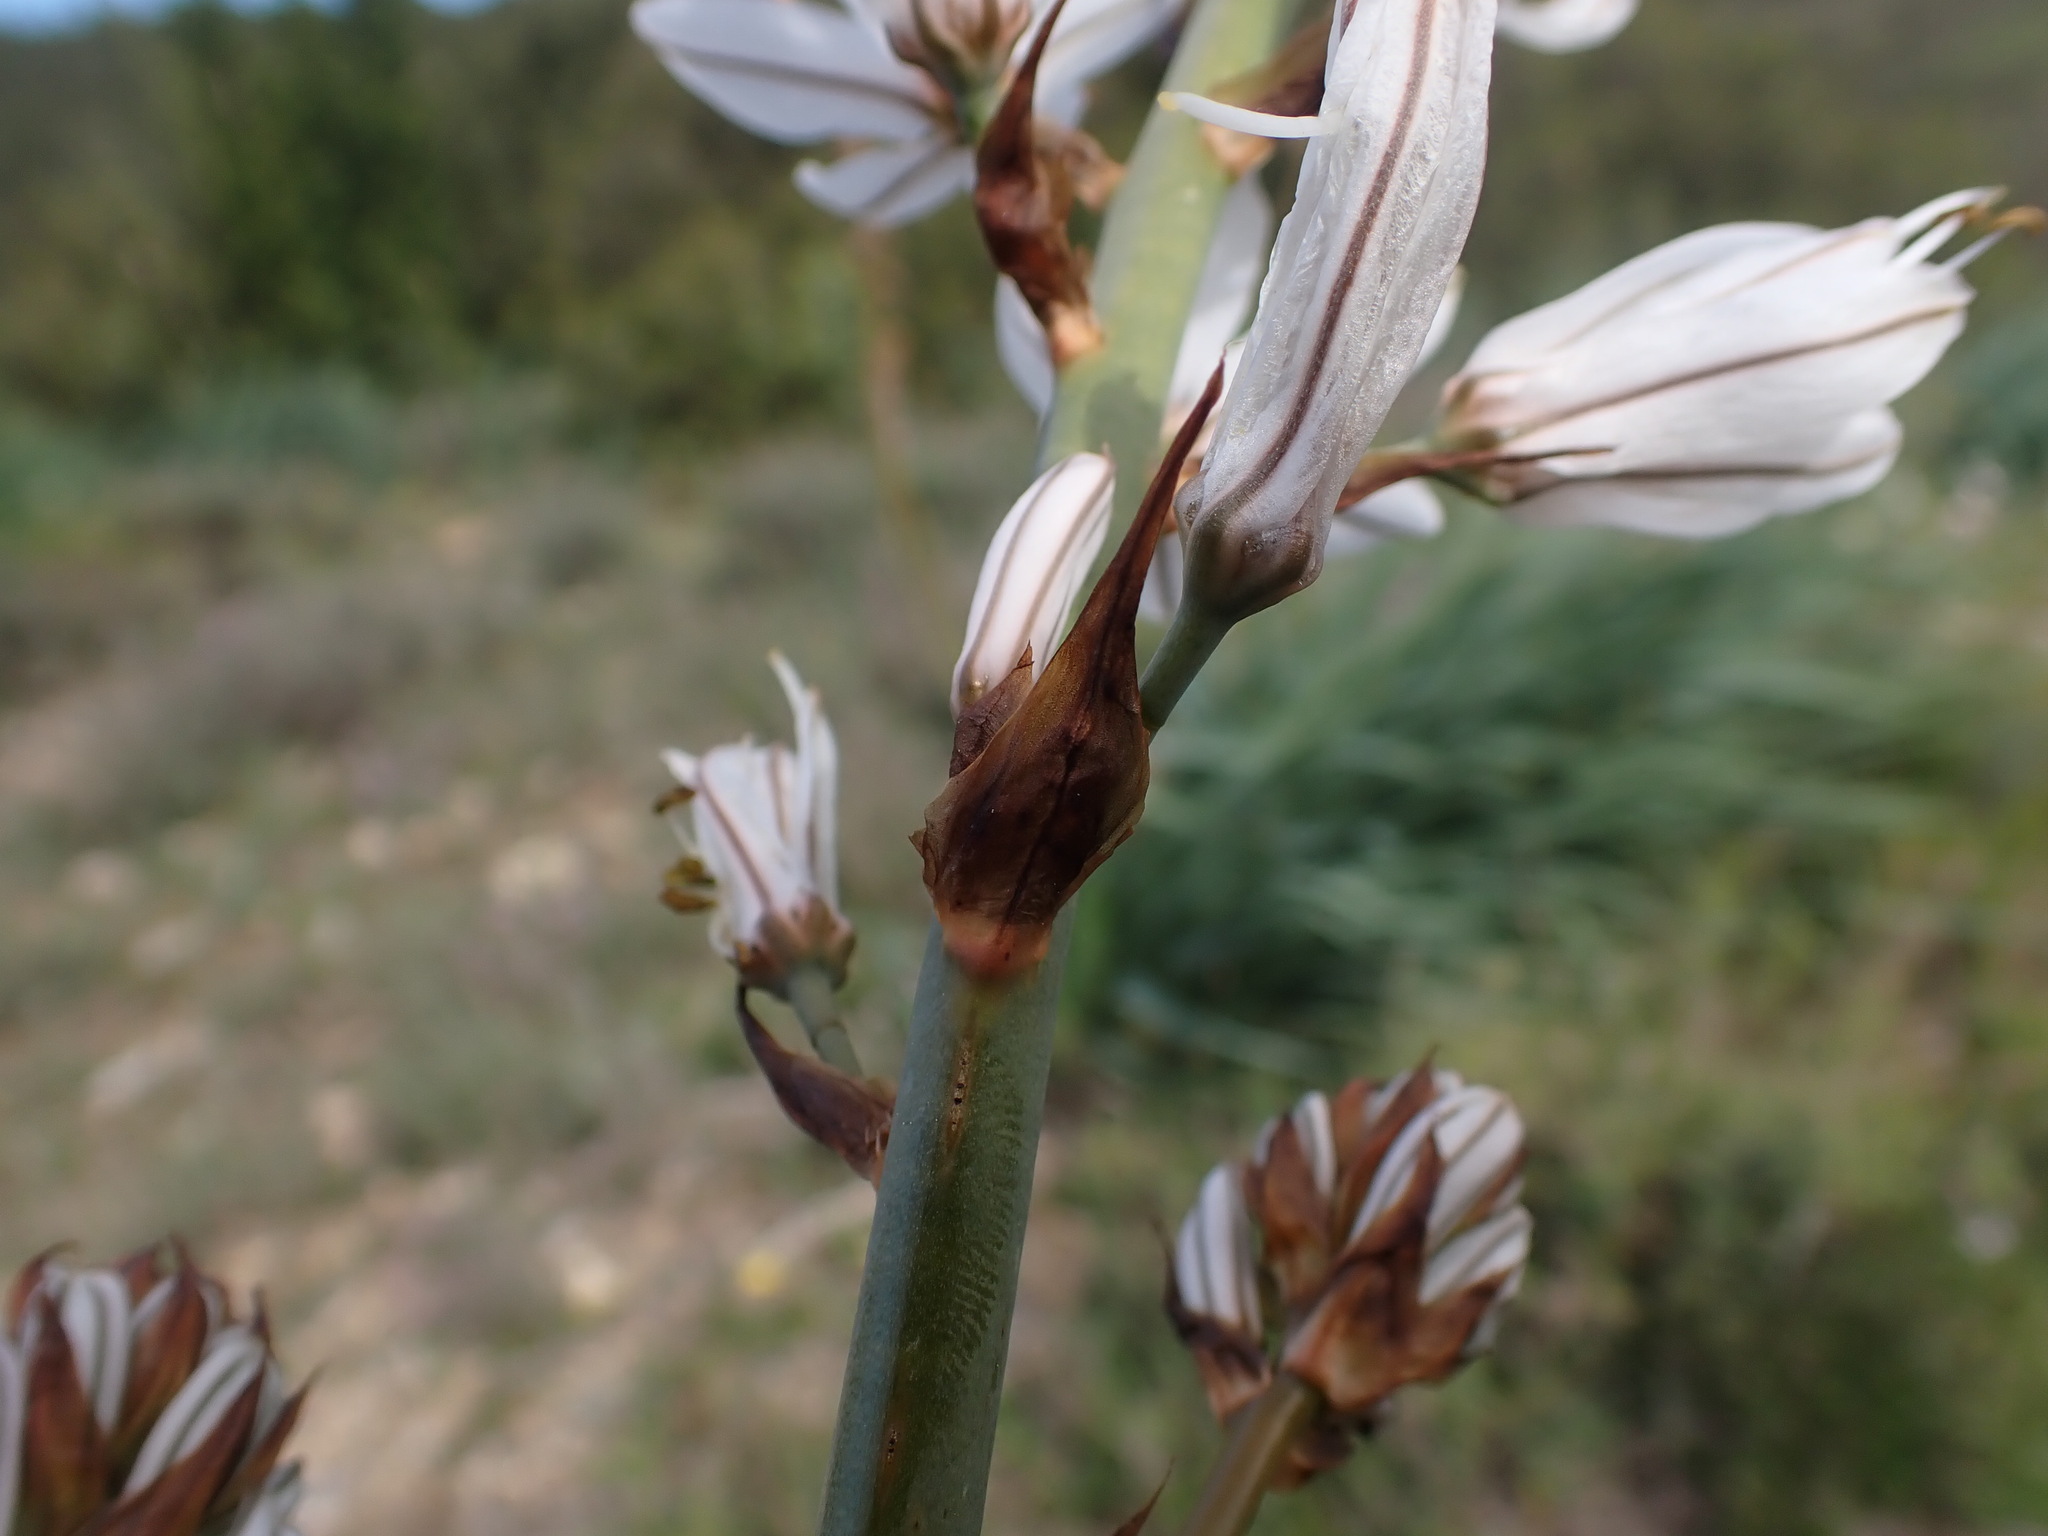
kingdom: Plantae
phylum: Tracheophyta
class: Liliopsida
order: Asparagales
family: Asphodelaceae
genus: Asphodelus
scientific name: Asphodelus cerasifer
